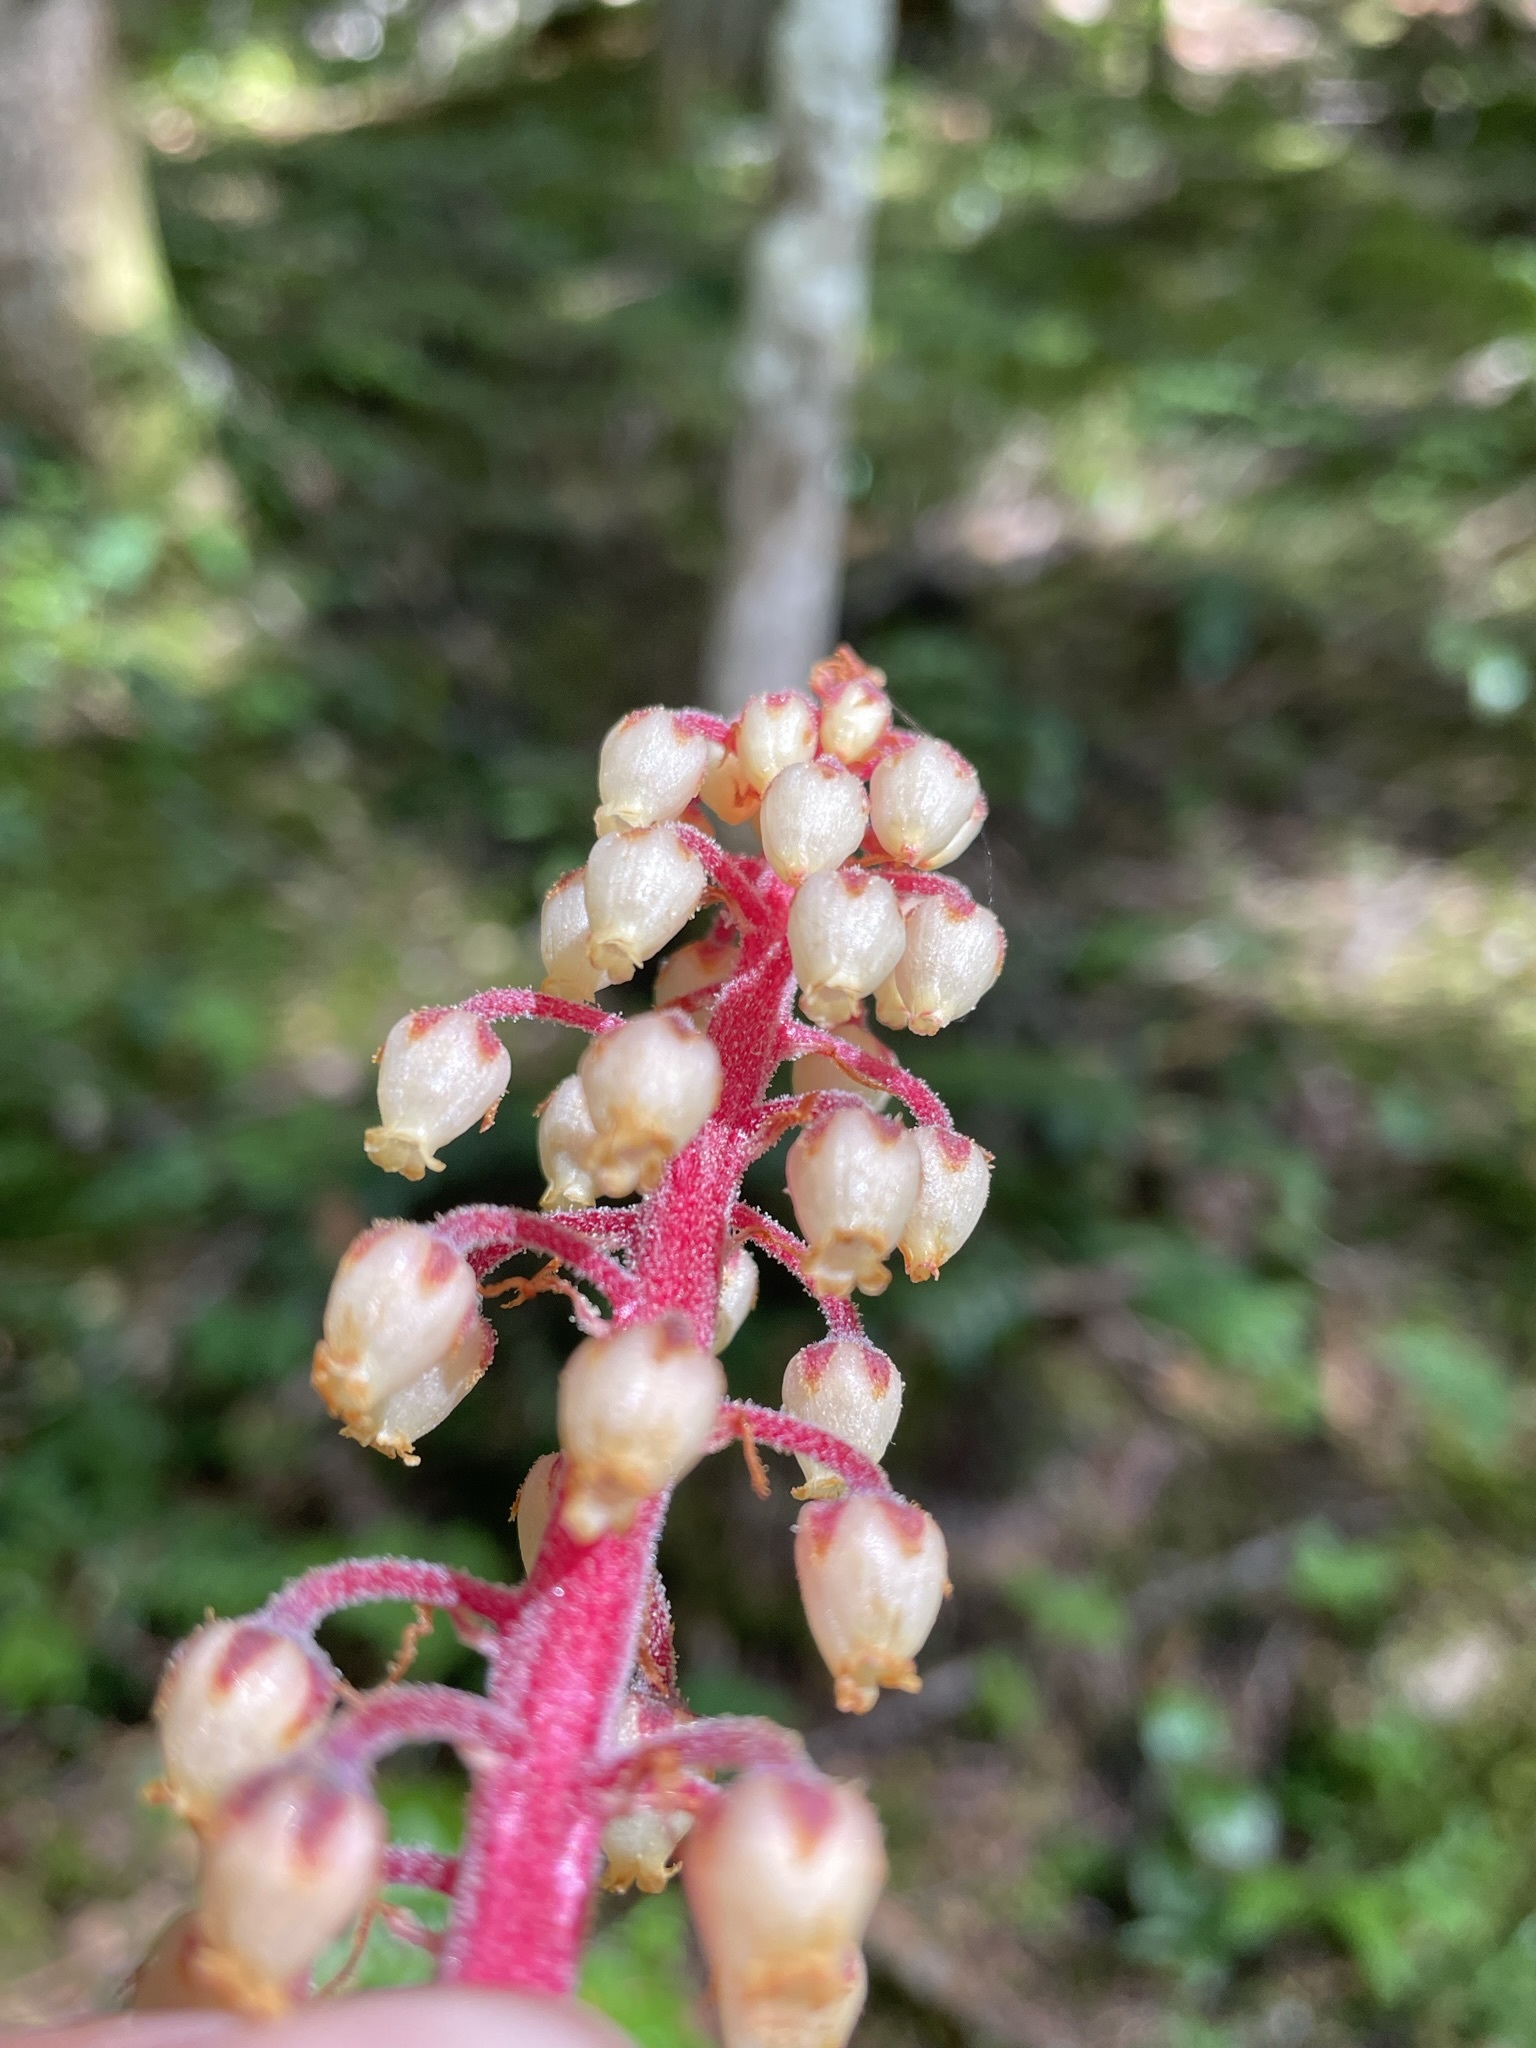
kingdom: Plantae
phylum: Tracheophyta
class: Magnoliopsida
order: Ericales
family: Ericaceae
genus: Pterospora
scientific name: Pterospora andromedea
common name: Giant bird's-nest
